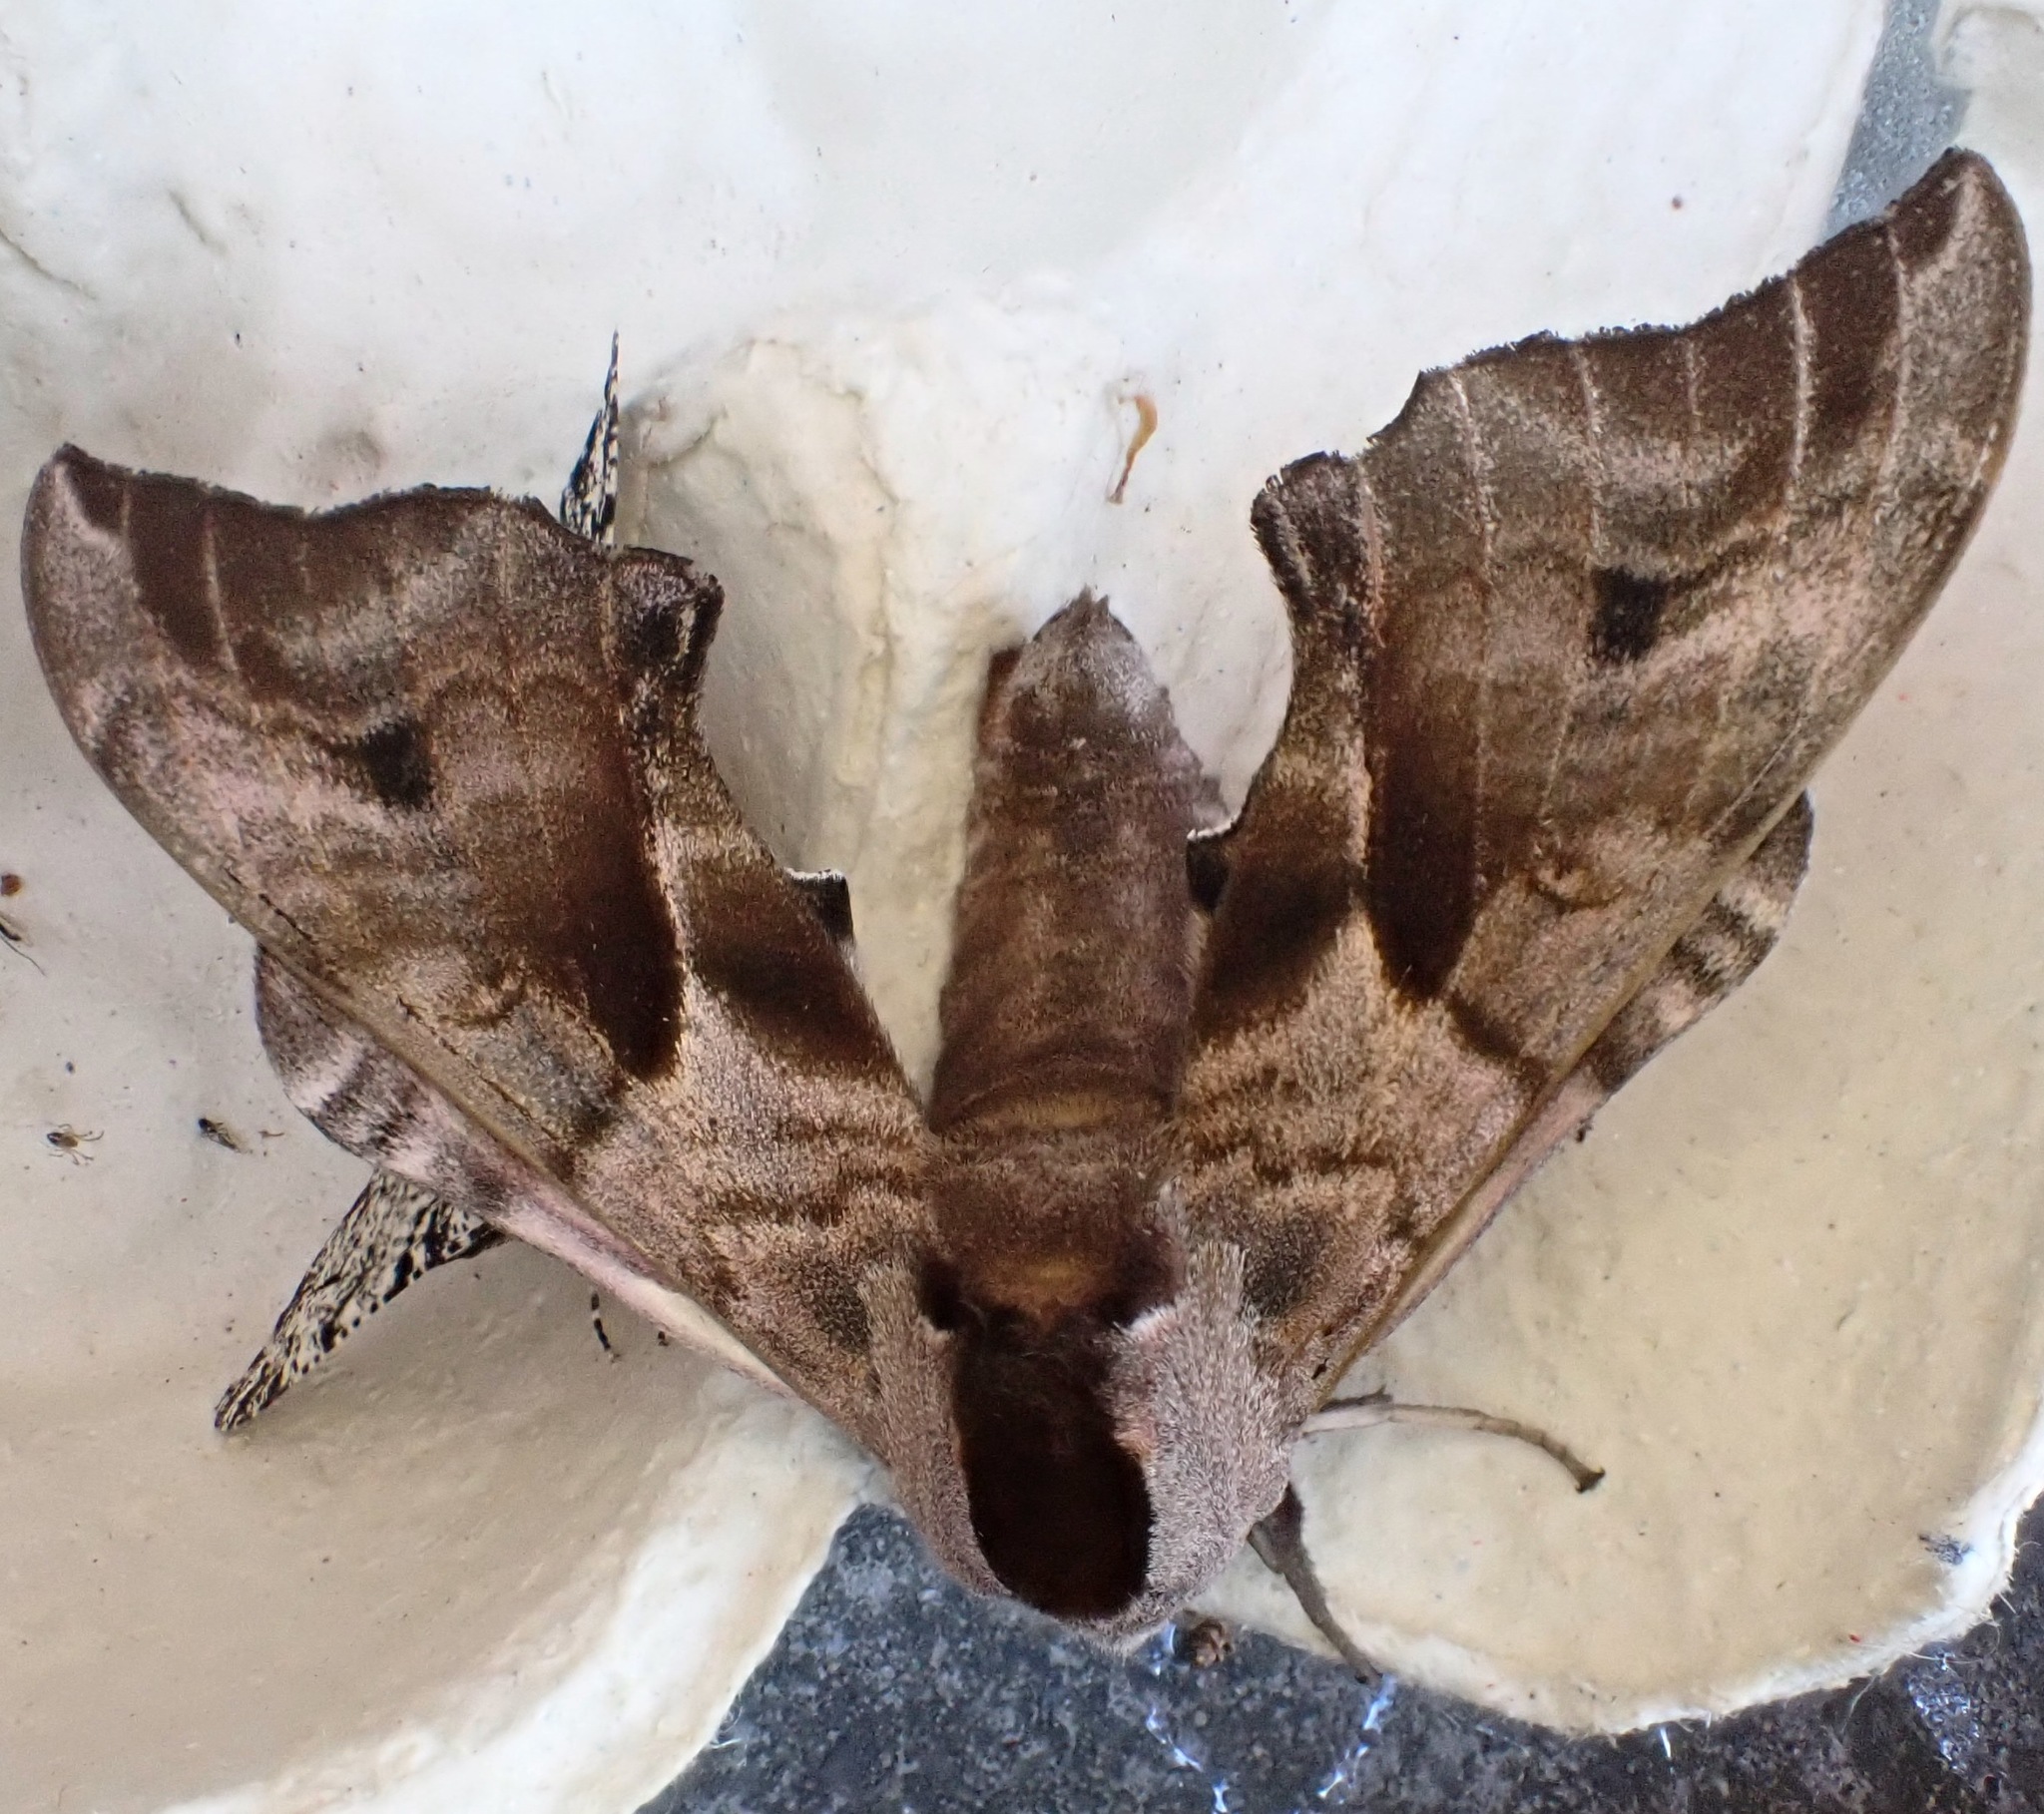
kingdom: Animalia
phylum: Arthropoda
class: Insecta
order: Lepidoptera
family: Sphingidae
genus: Smerinthus
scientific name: Smerinthus ocellata
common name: Eyed hawk-moth
